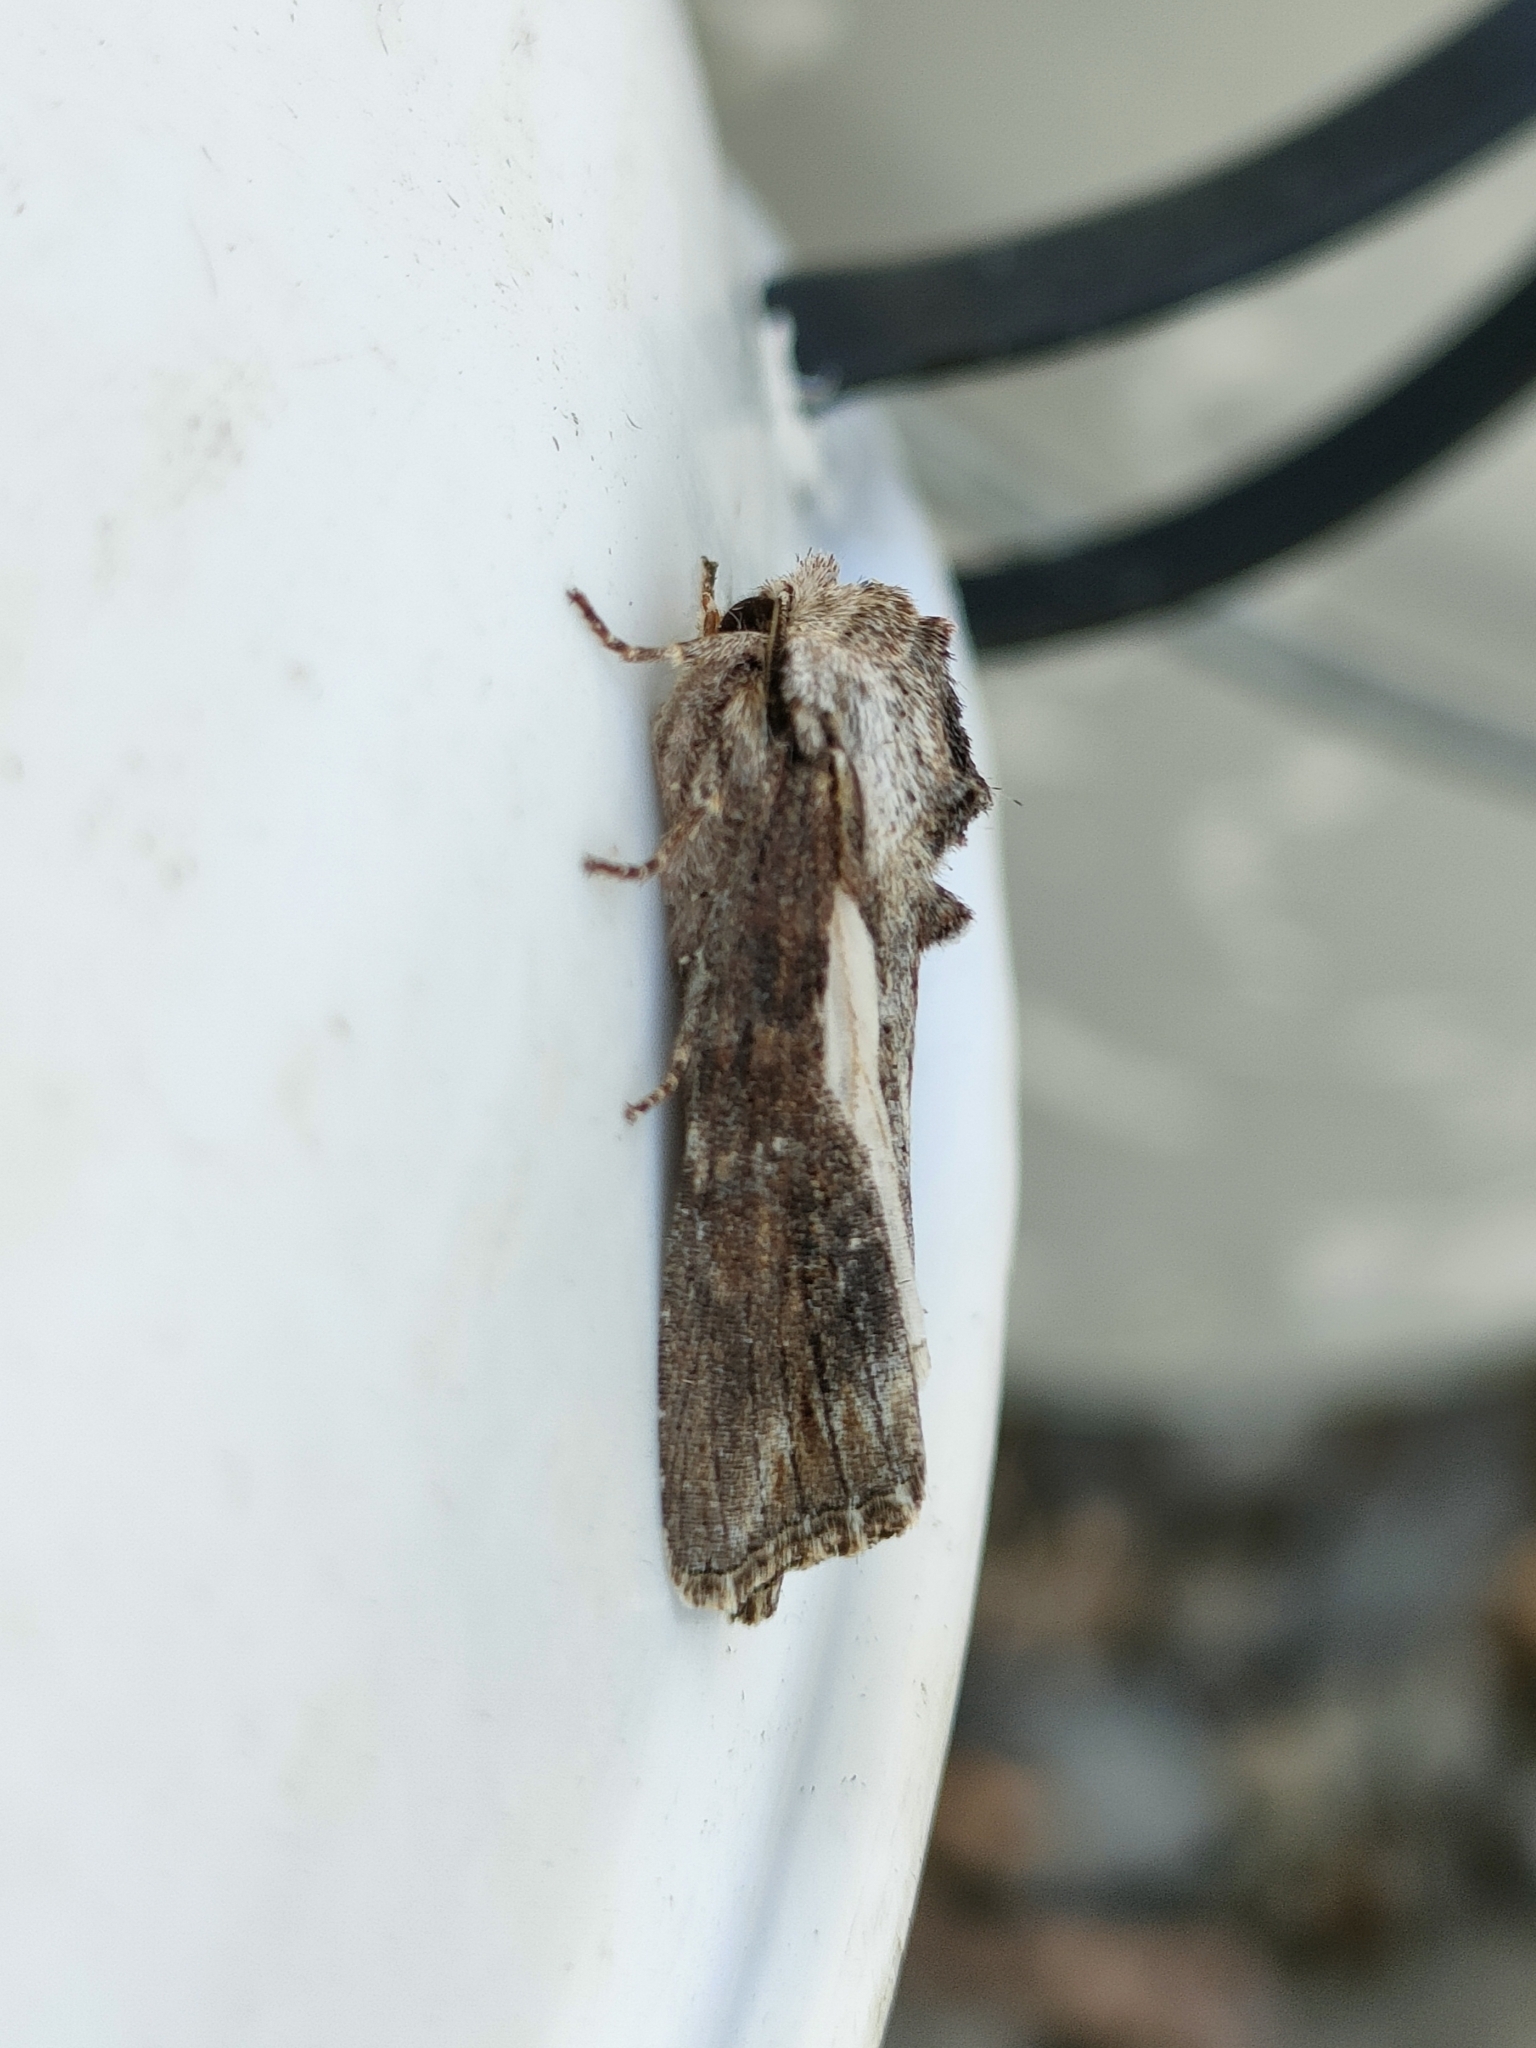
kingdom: Animalia
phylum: Arthropoda
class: Insecta
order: Lepidoptera
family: Noctuidae
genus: Egira
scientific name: Egira conspicillaris
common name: Silver cloud
